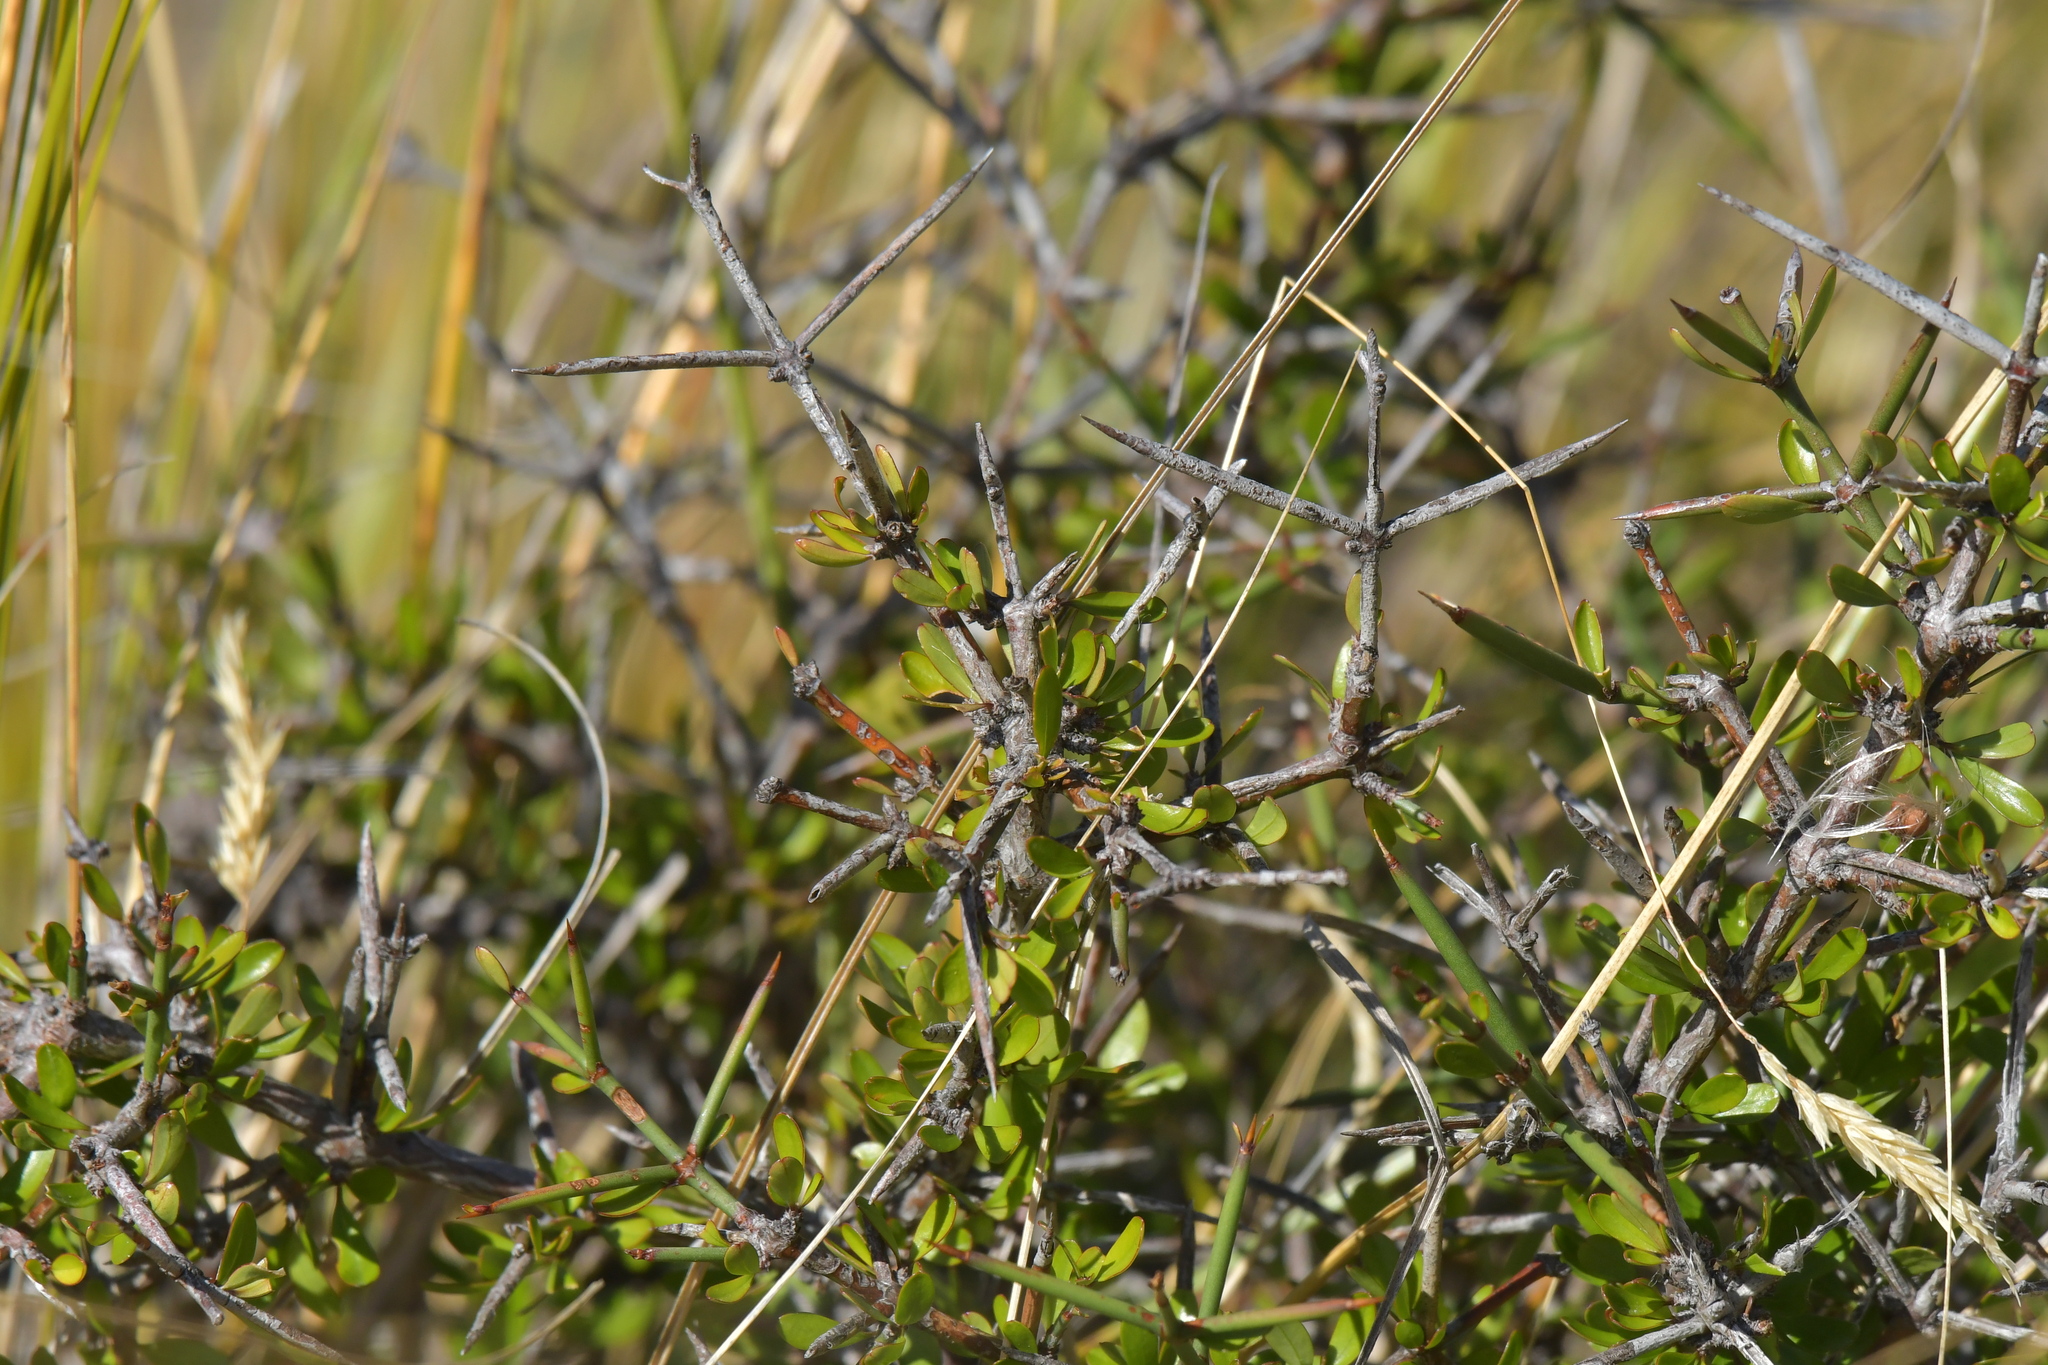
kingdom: Plantae
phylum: Tracheophyta
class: Magnoliopsida
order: Rosales
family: Rhamnaceae
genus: Discaria
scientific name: Discaria toumatou
